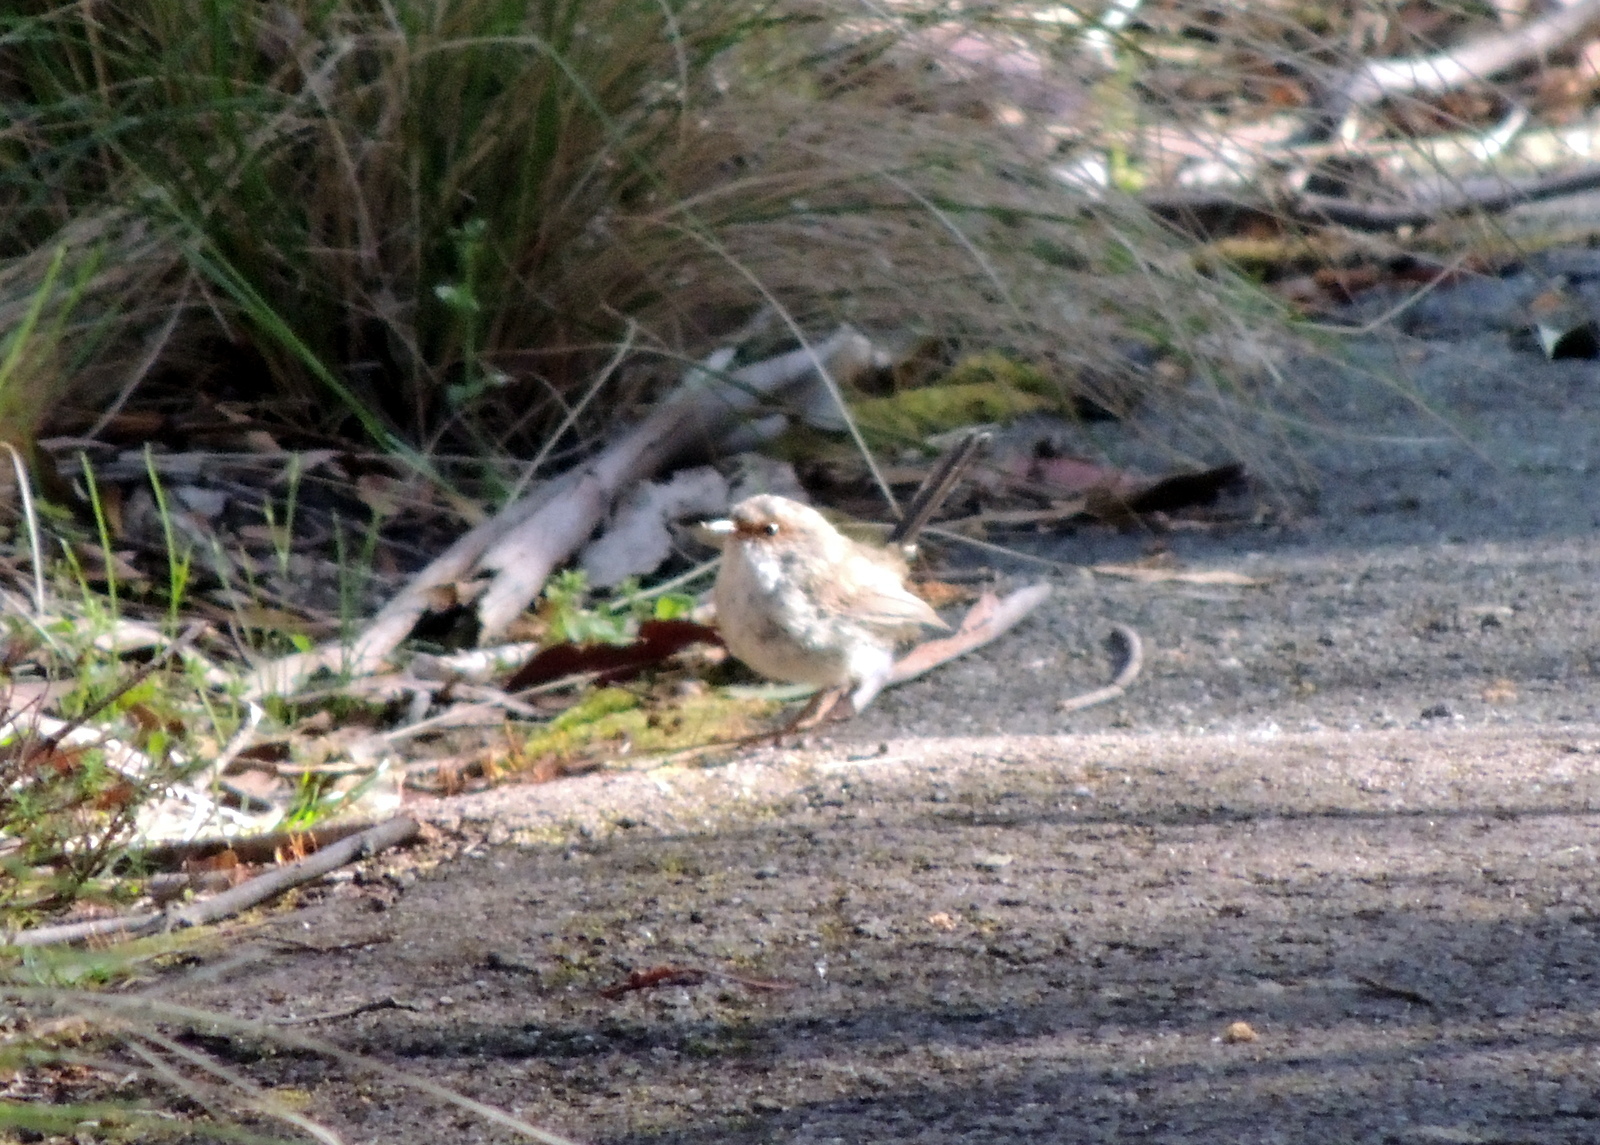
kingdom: Animalia
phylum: Chordata
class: Aves
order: Passeriformes
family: Acanthizidae
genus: Sericornis
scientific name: Sericornis frontalis
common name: White-browed scrubwren
